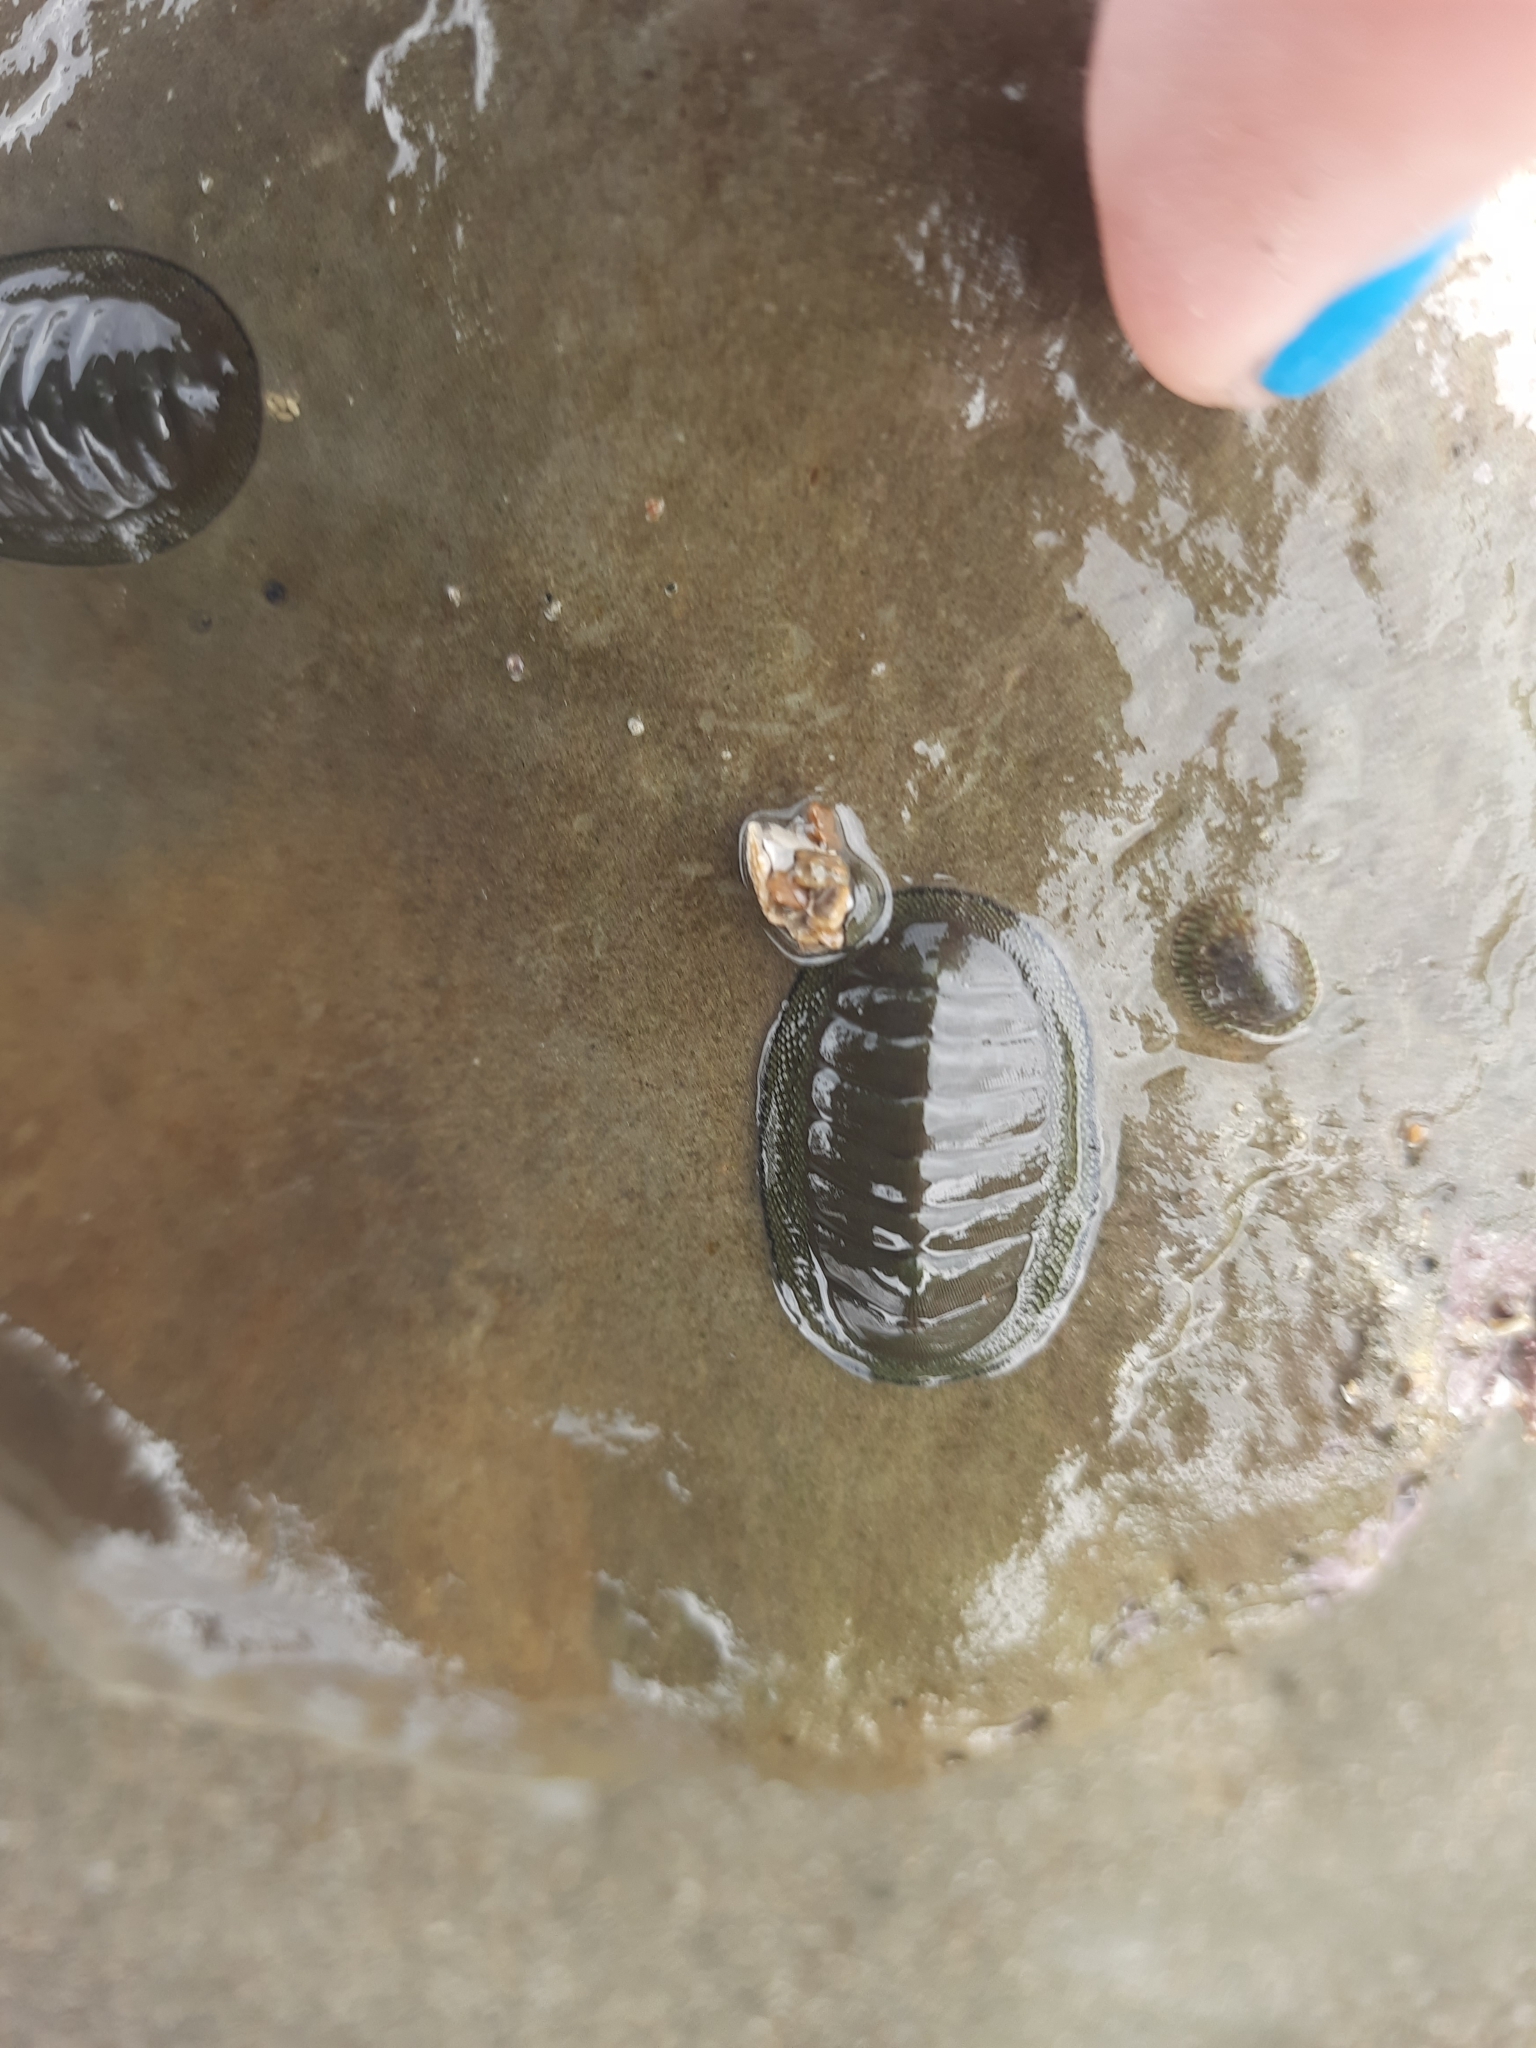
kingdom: Animalia
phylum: Mollusca
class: Polyplacophora
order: Chitonida
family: Chitonidae
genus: Chiton
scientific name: Chiton glaucus
